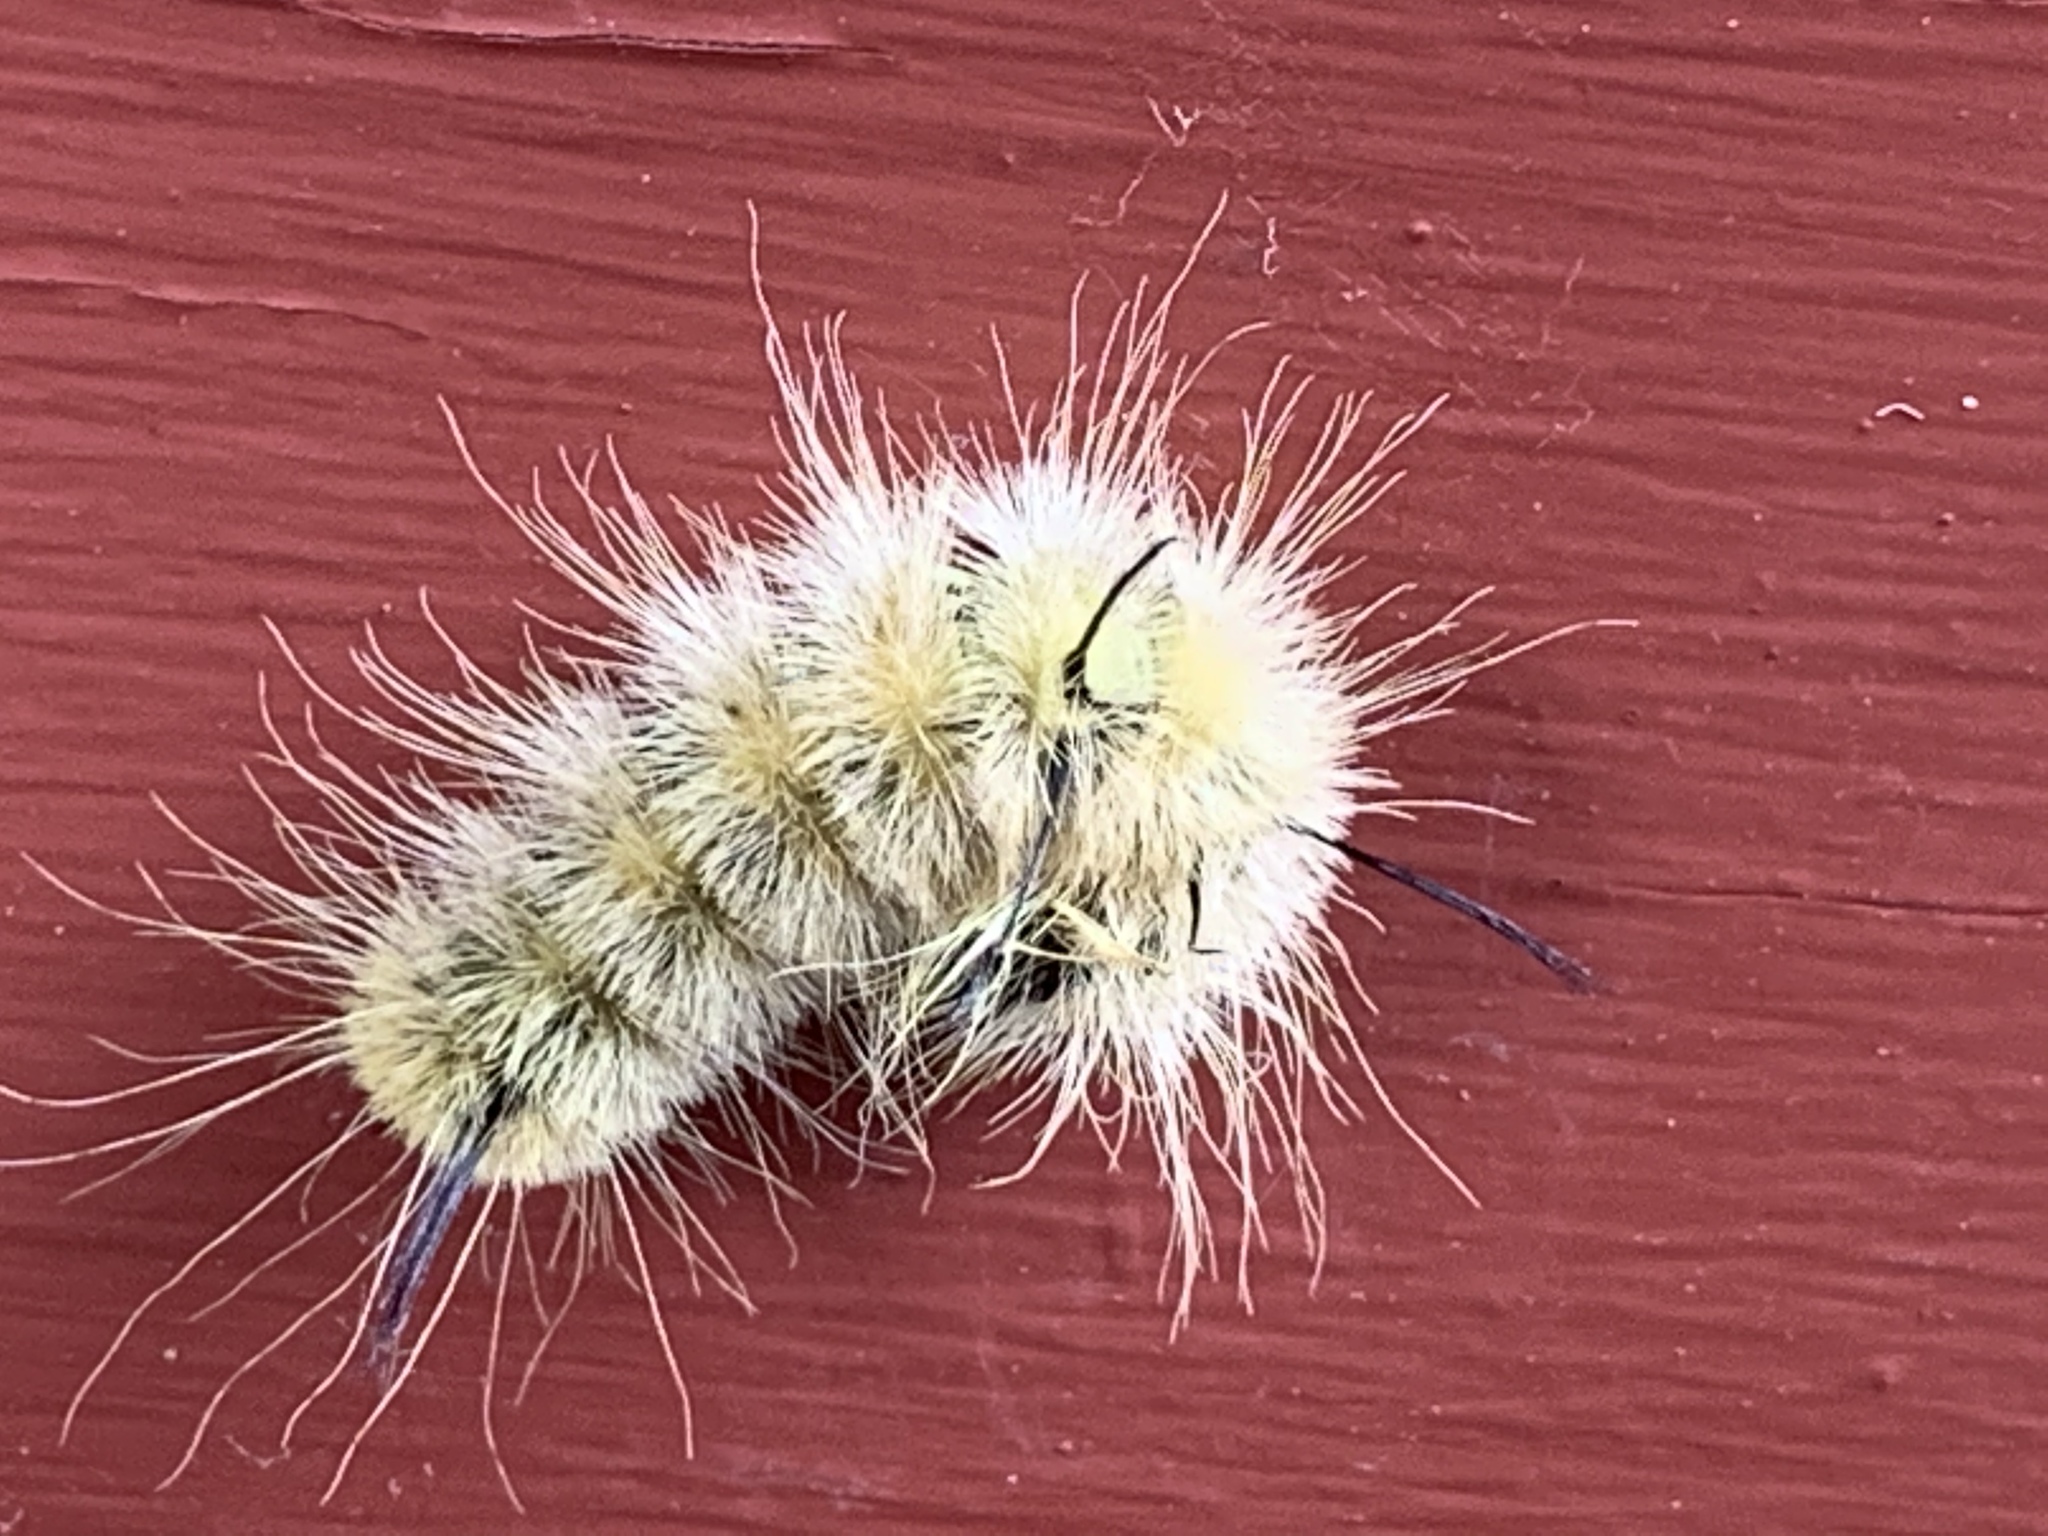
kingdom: Animalia
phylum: Arthropoda
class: Insecta
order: Lepidoptera
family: Noctuidae
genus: Acronicta
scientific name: Acronicta americana
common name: American dagger
